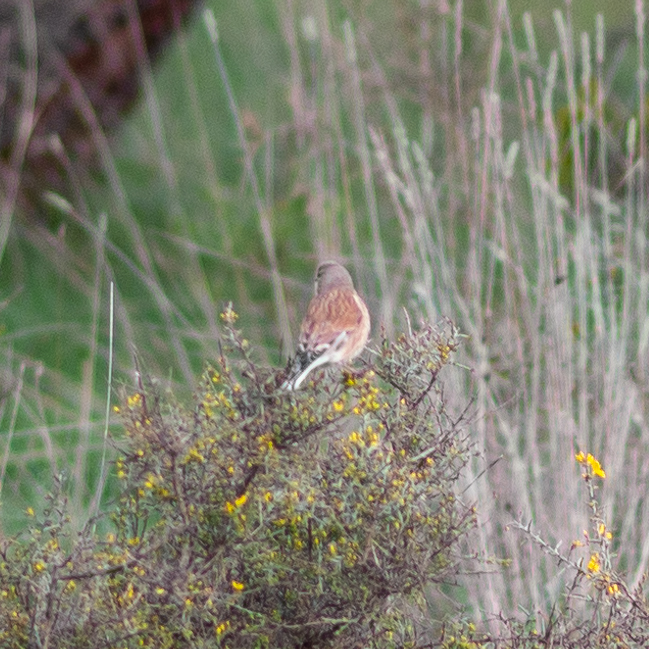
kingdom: Animalia
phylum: Chordata
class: Aves
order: Passeriformes
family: Fringillidae
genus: Linaria
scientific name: Linaria cannabina
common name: Common linnet
